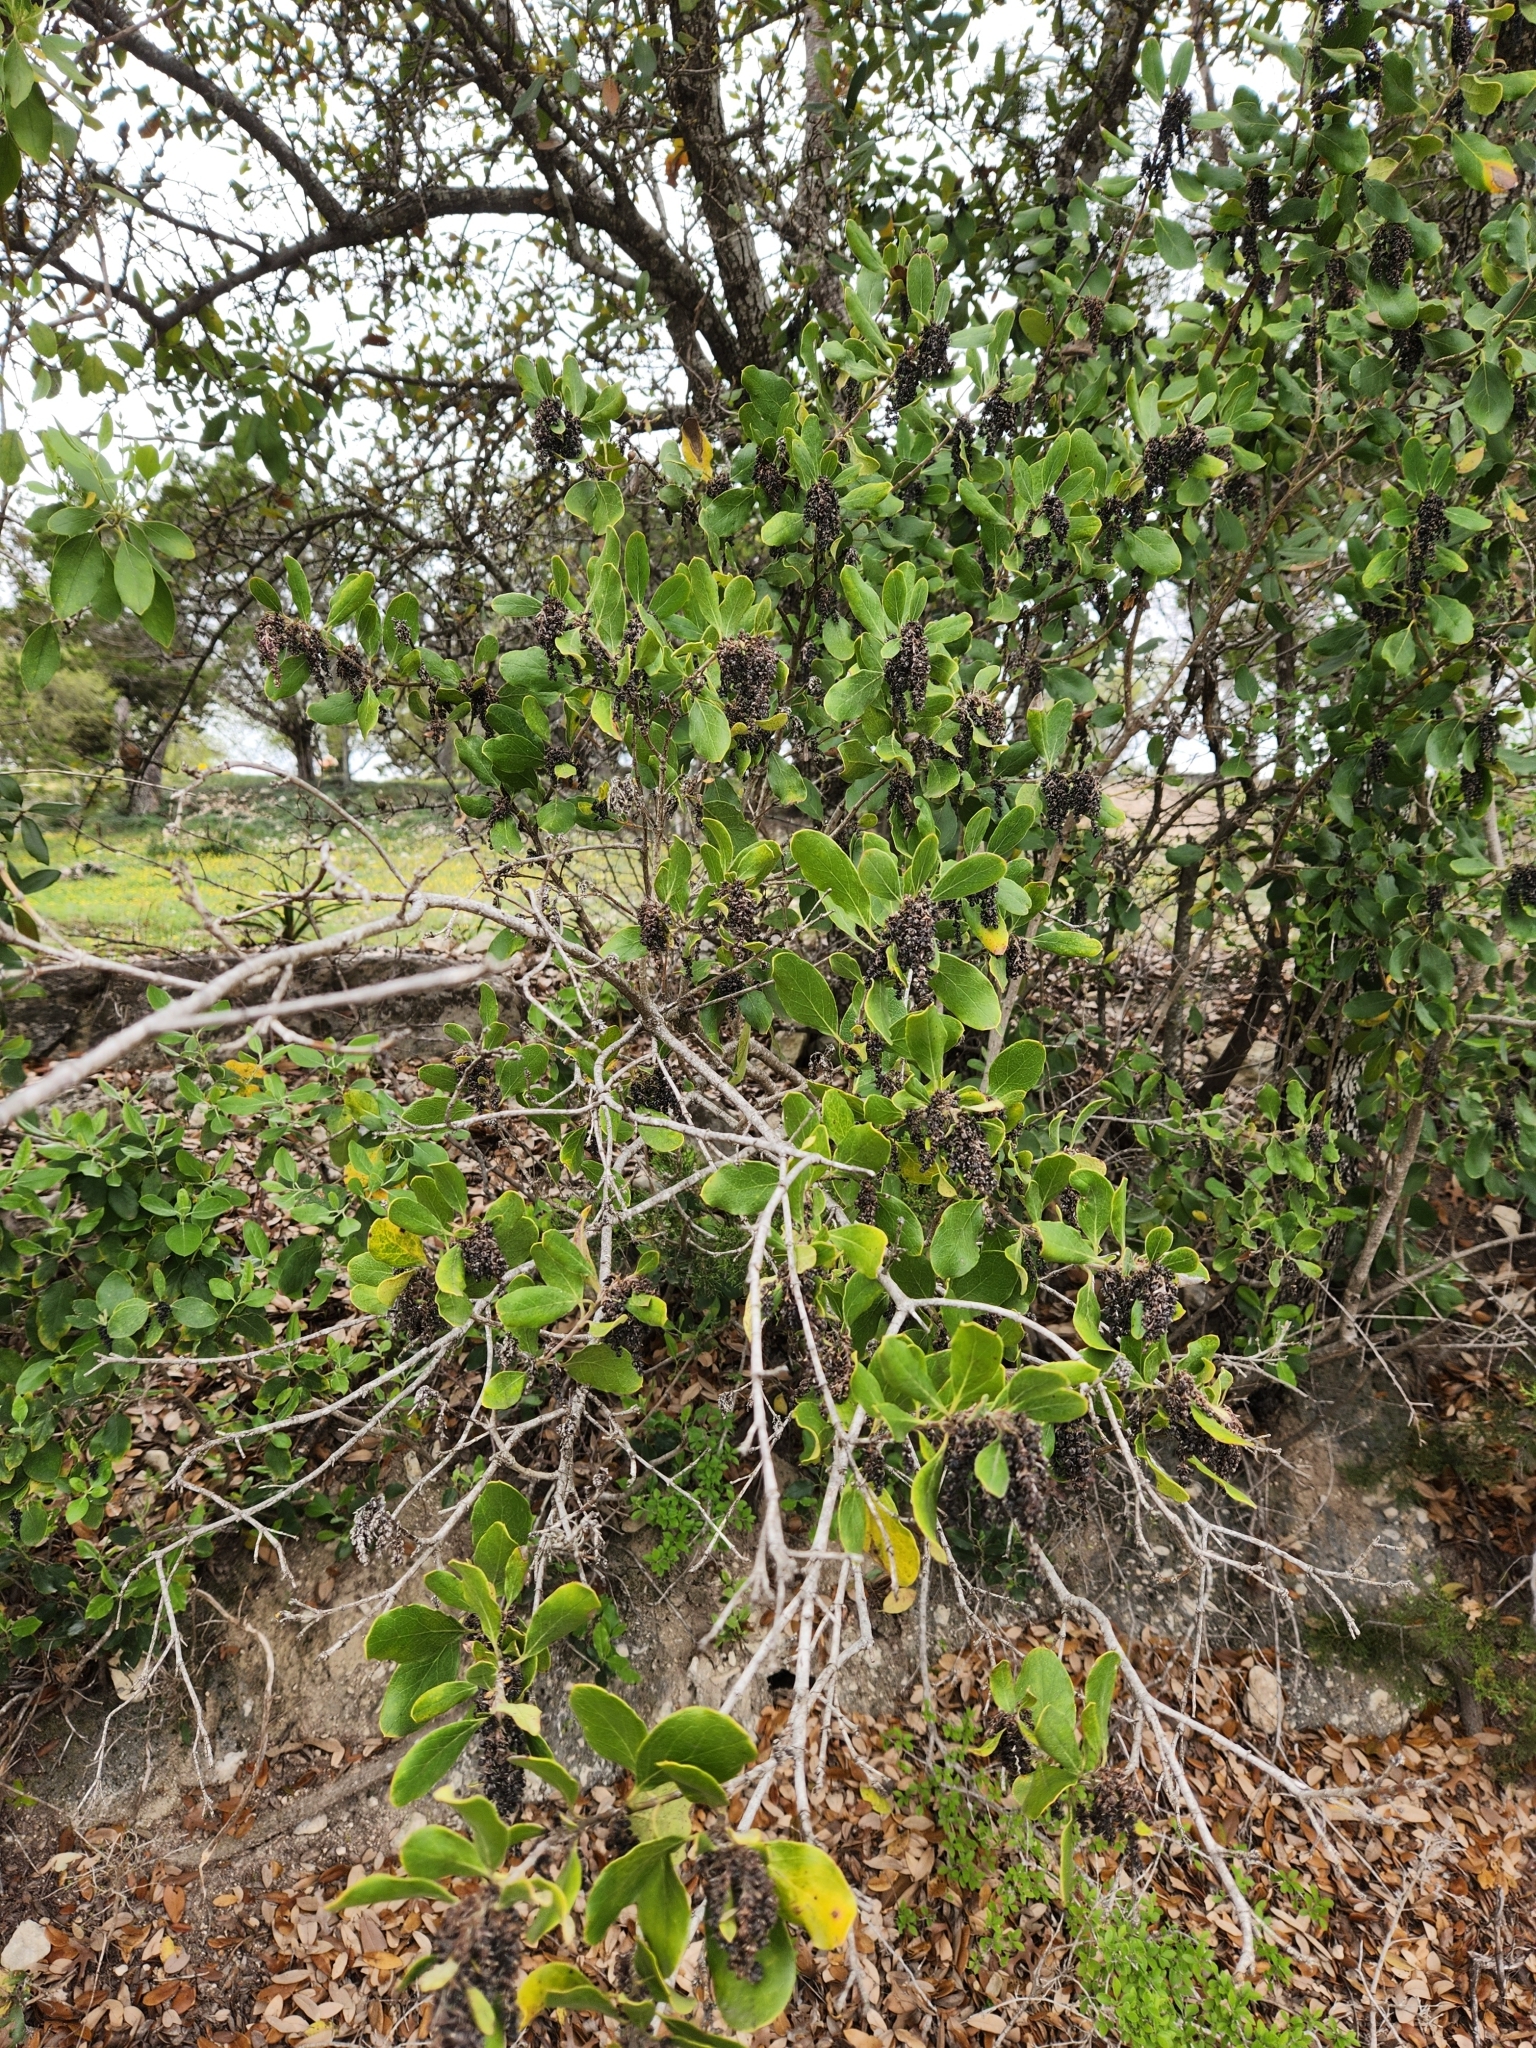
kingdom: Plantae
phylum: Tracheophyta
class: Magnoliopsida
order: Garryales
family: Garryaceae
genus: Garrya
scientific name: Garrya lindheimeri
